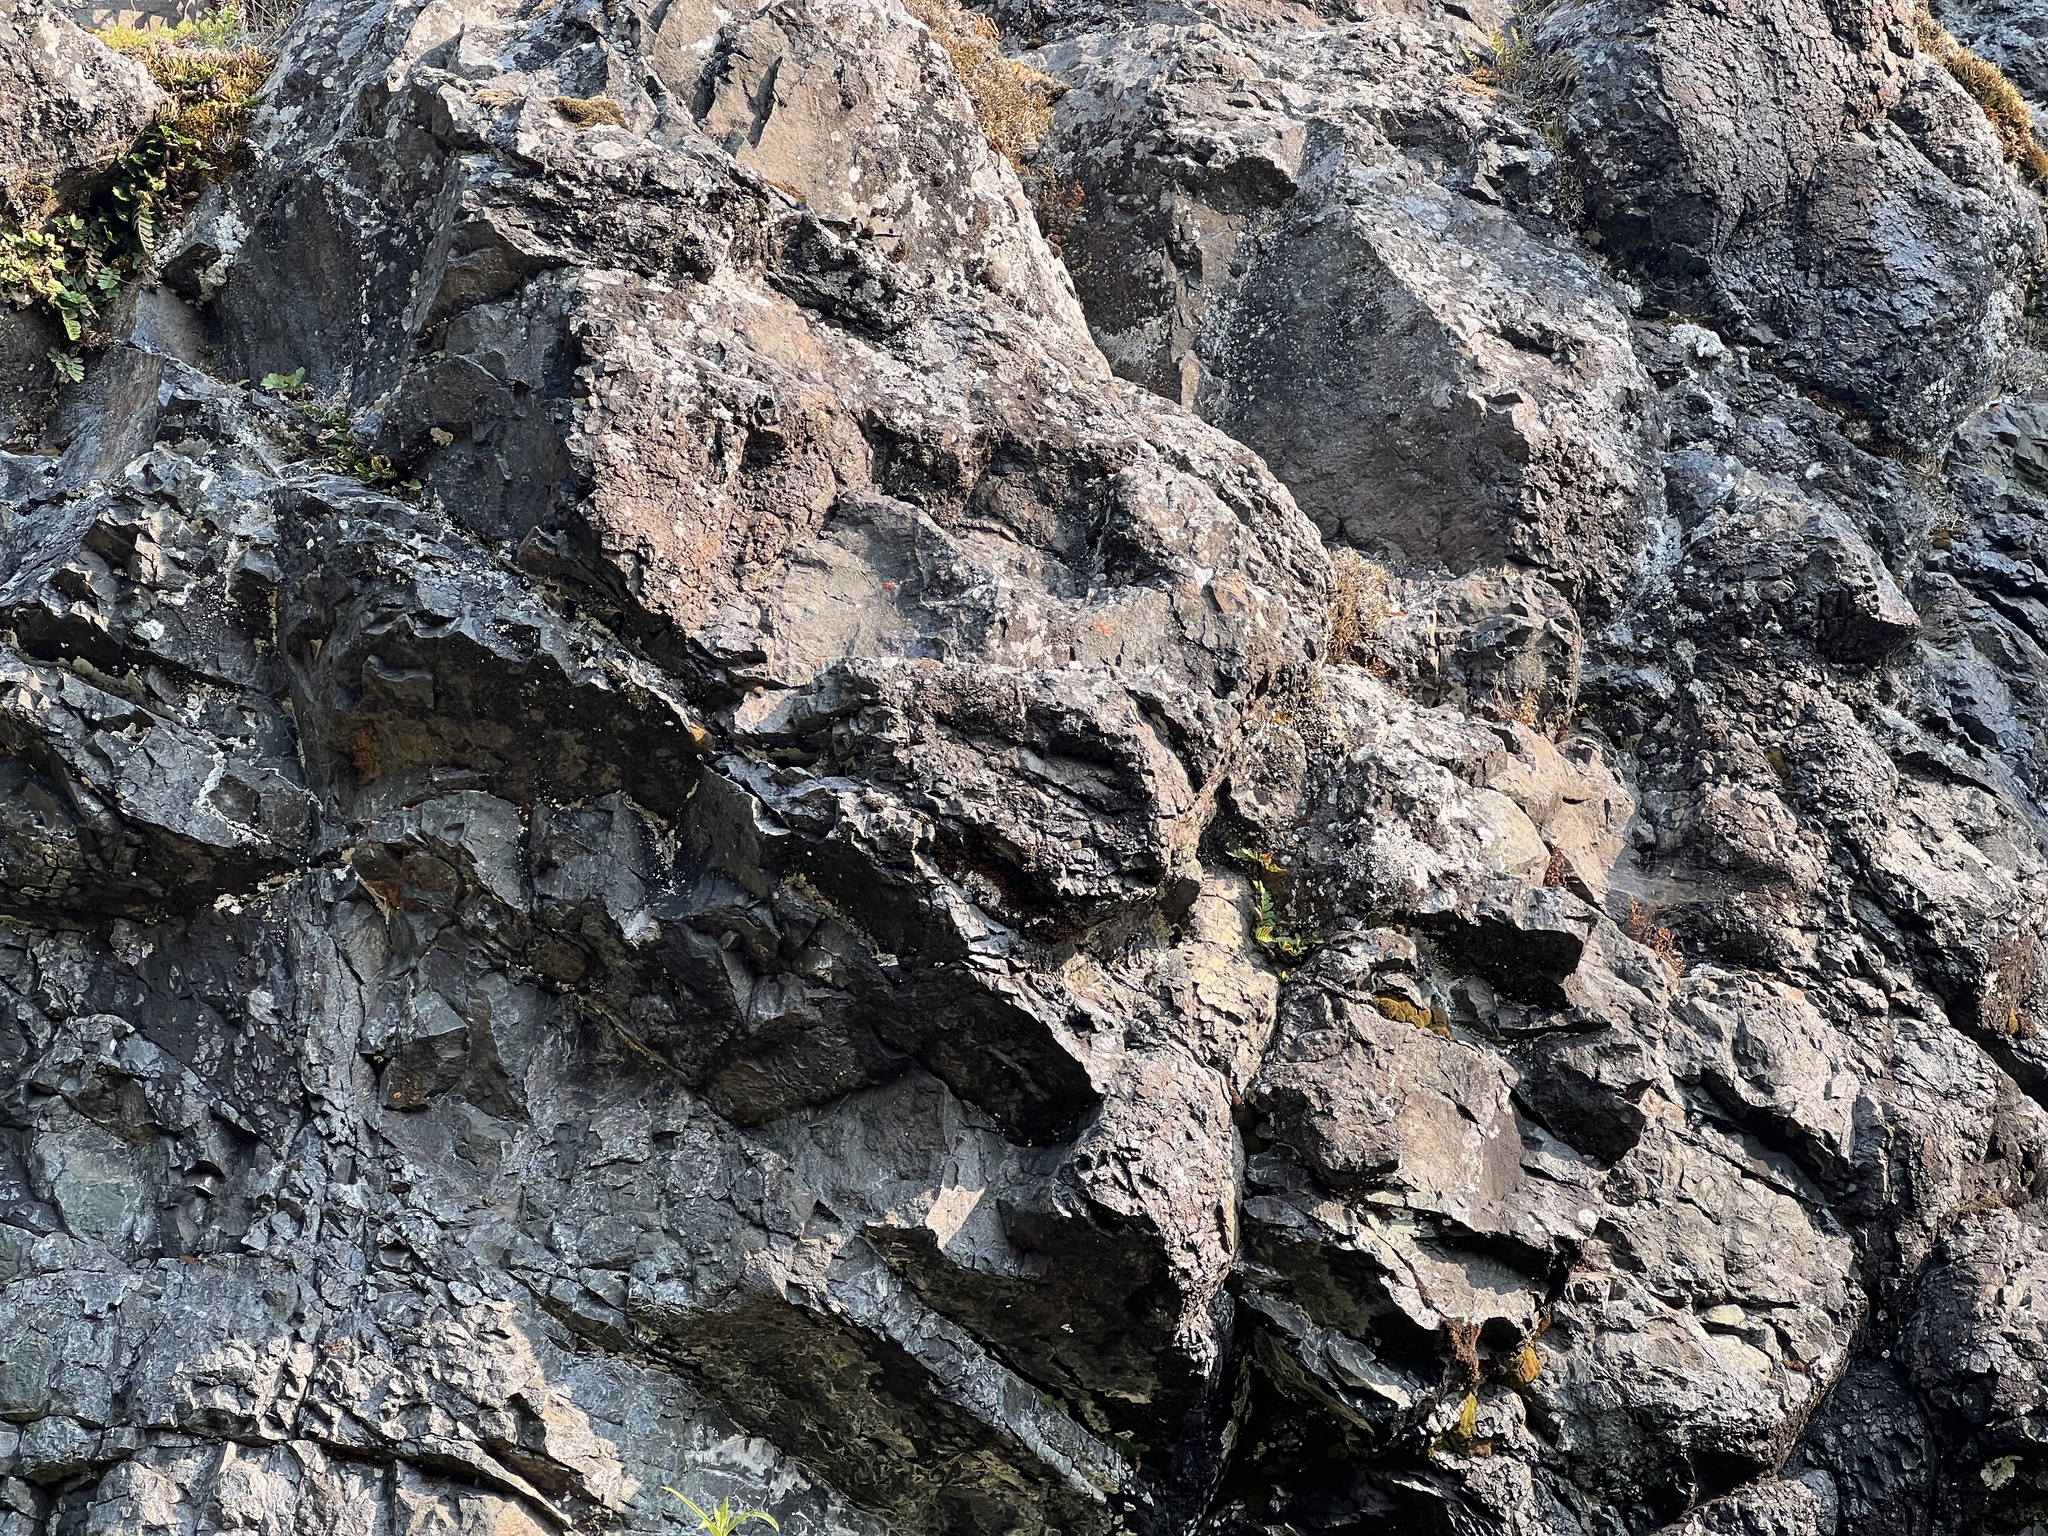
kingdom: Plantae
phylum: Tracheophyta
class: Polypodiopsida
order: Polypodiales
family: Polypodiaceae
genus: Polypodium
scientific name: Polypodium amorphum
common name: Pacific polypody
